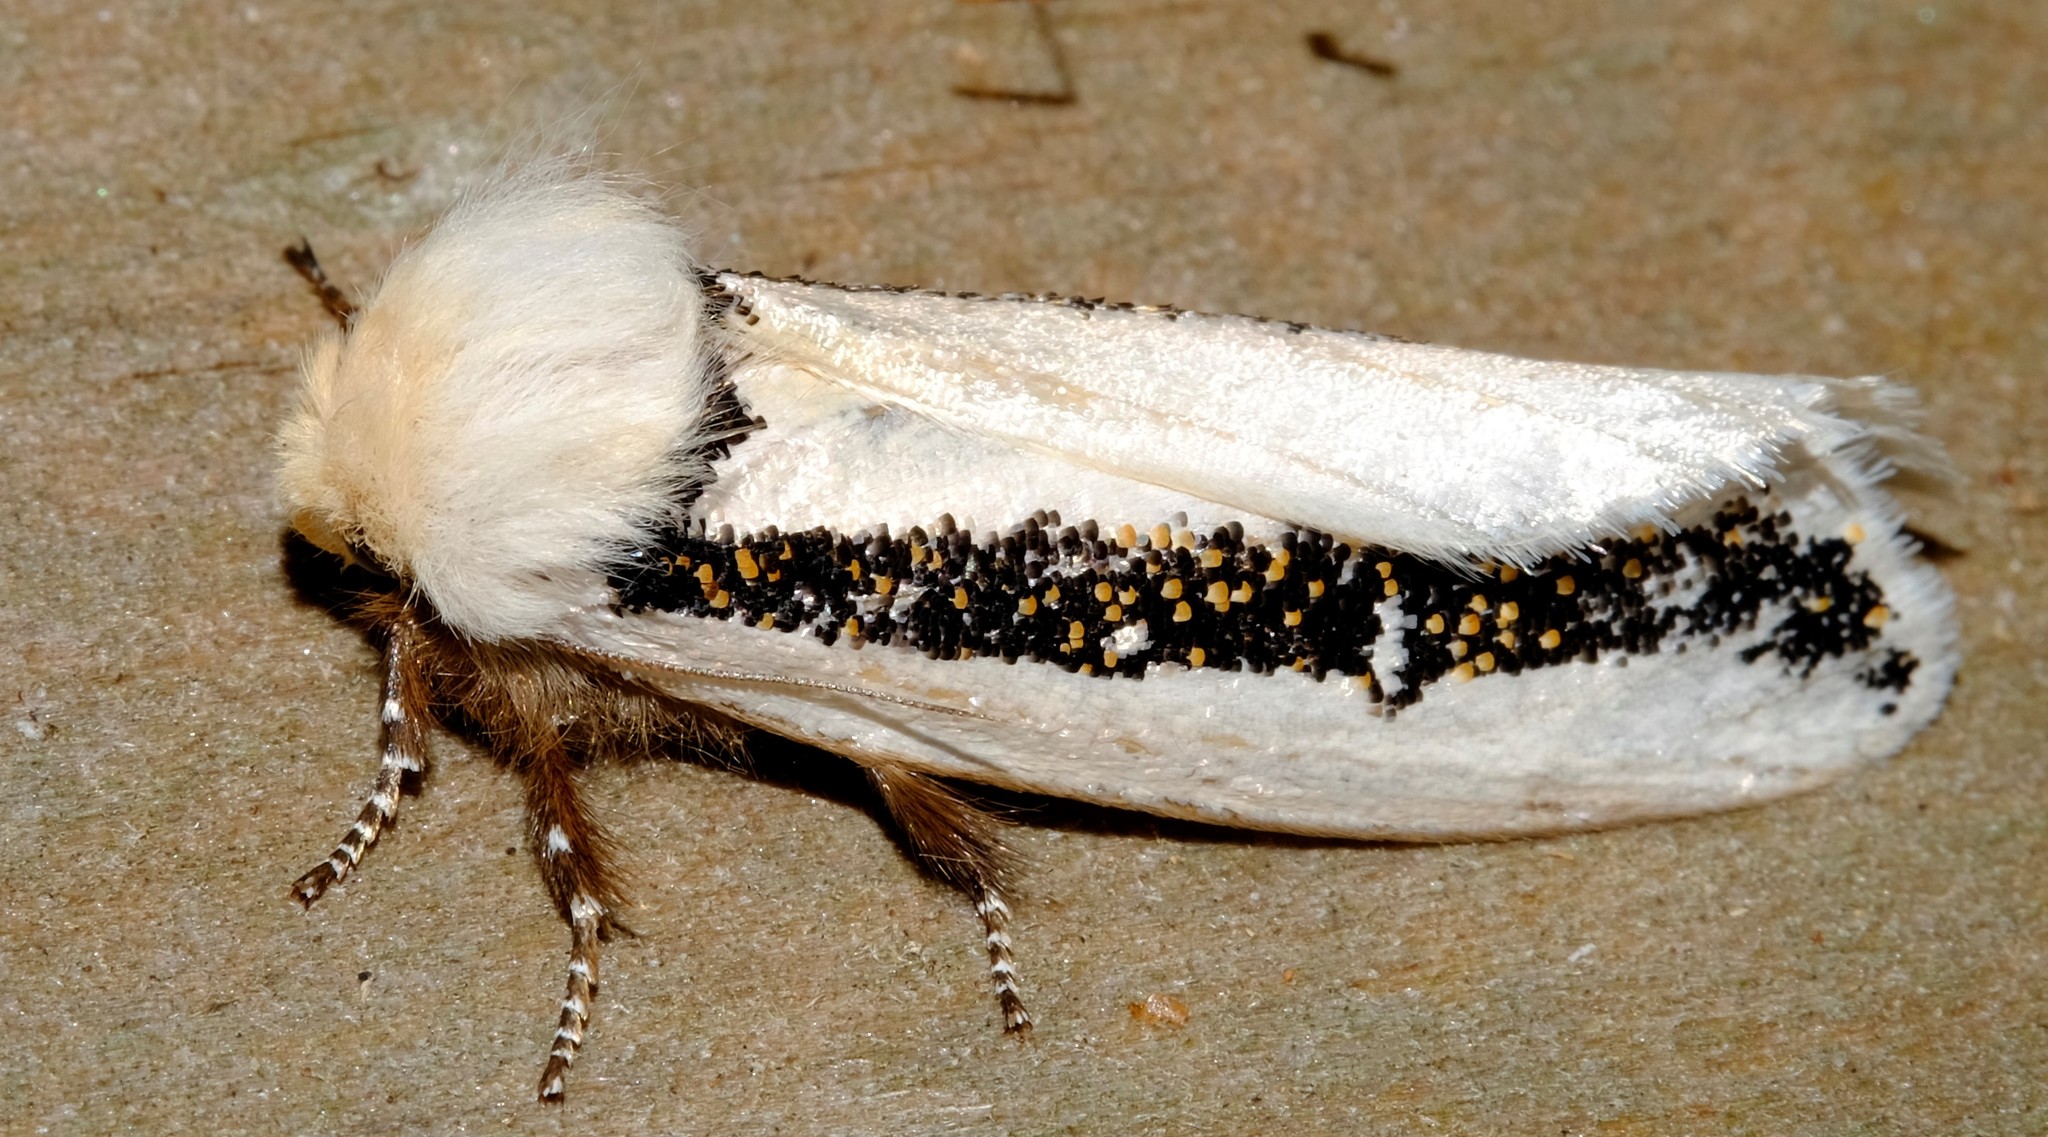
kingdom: Animalia
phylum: Arthropoda
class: Insecta
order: Lepidoptera
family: Oenosandridae
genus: Oenosandra
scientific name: Oenosandra boisduvalii
